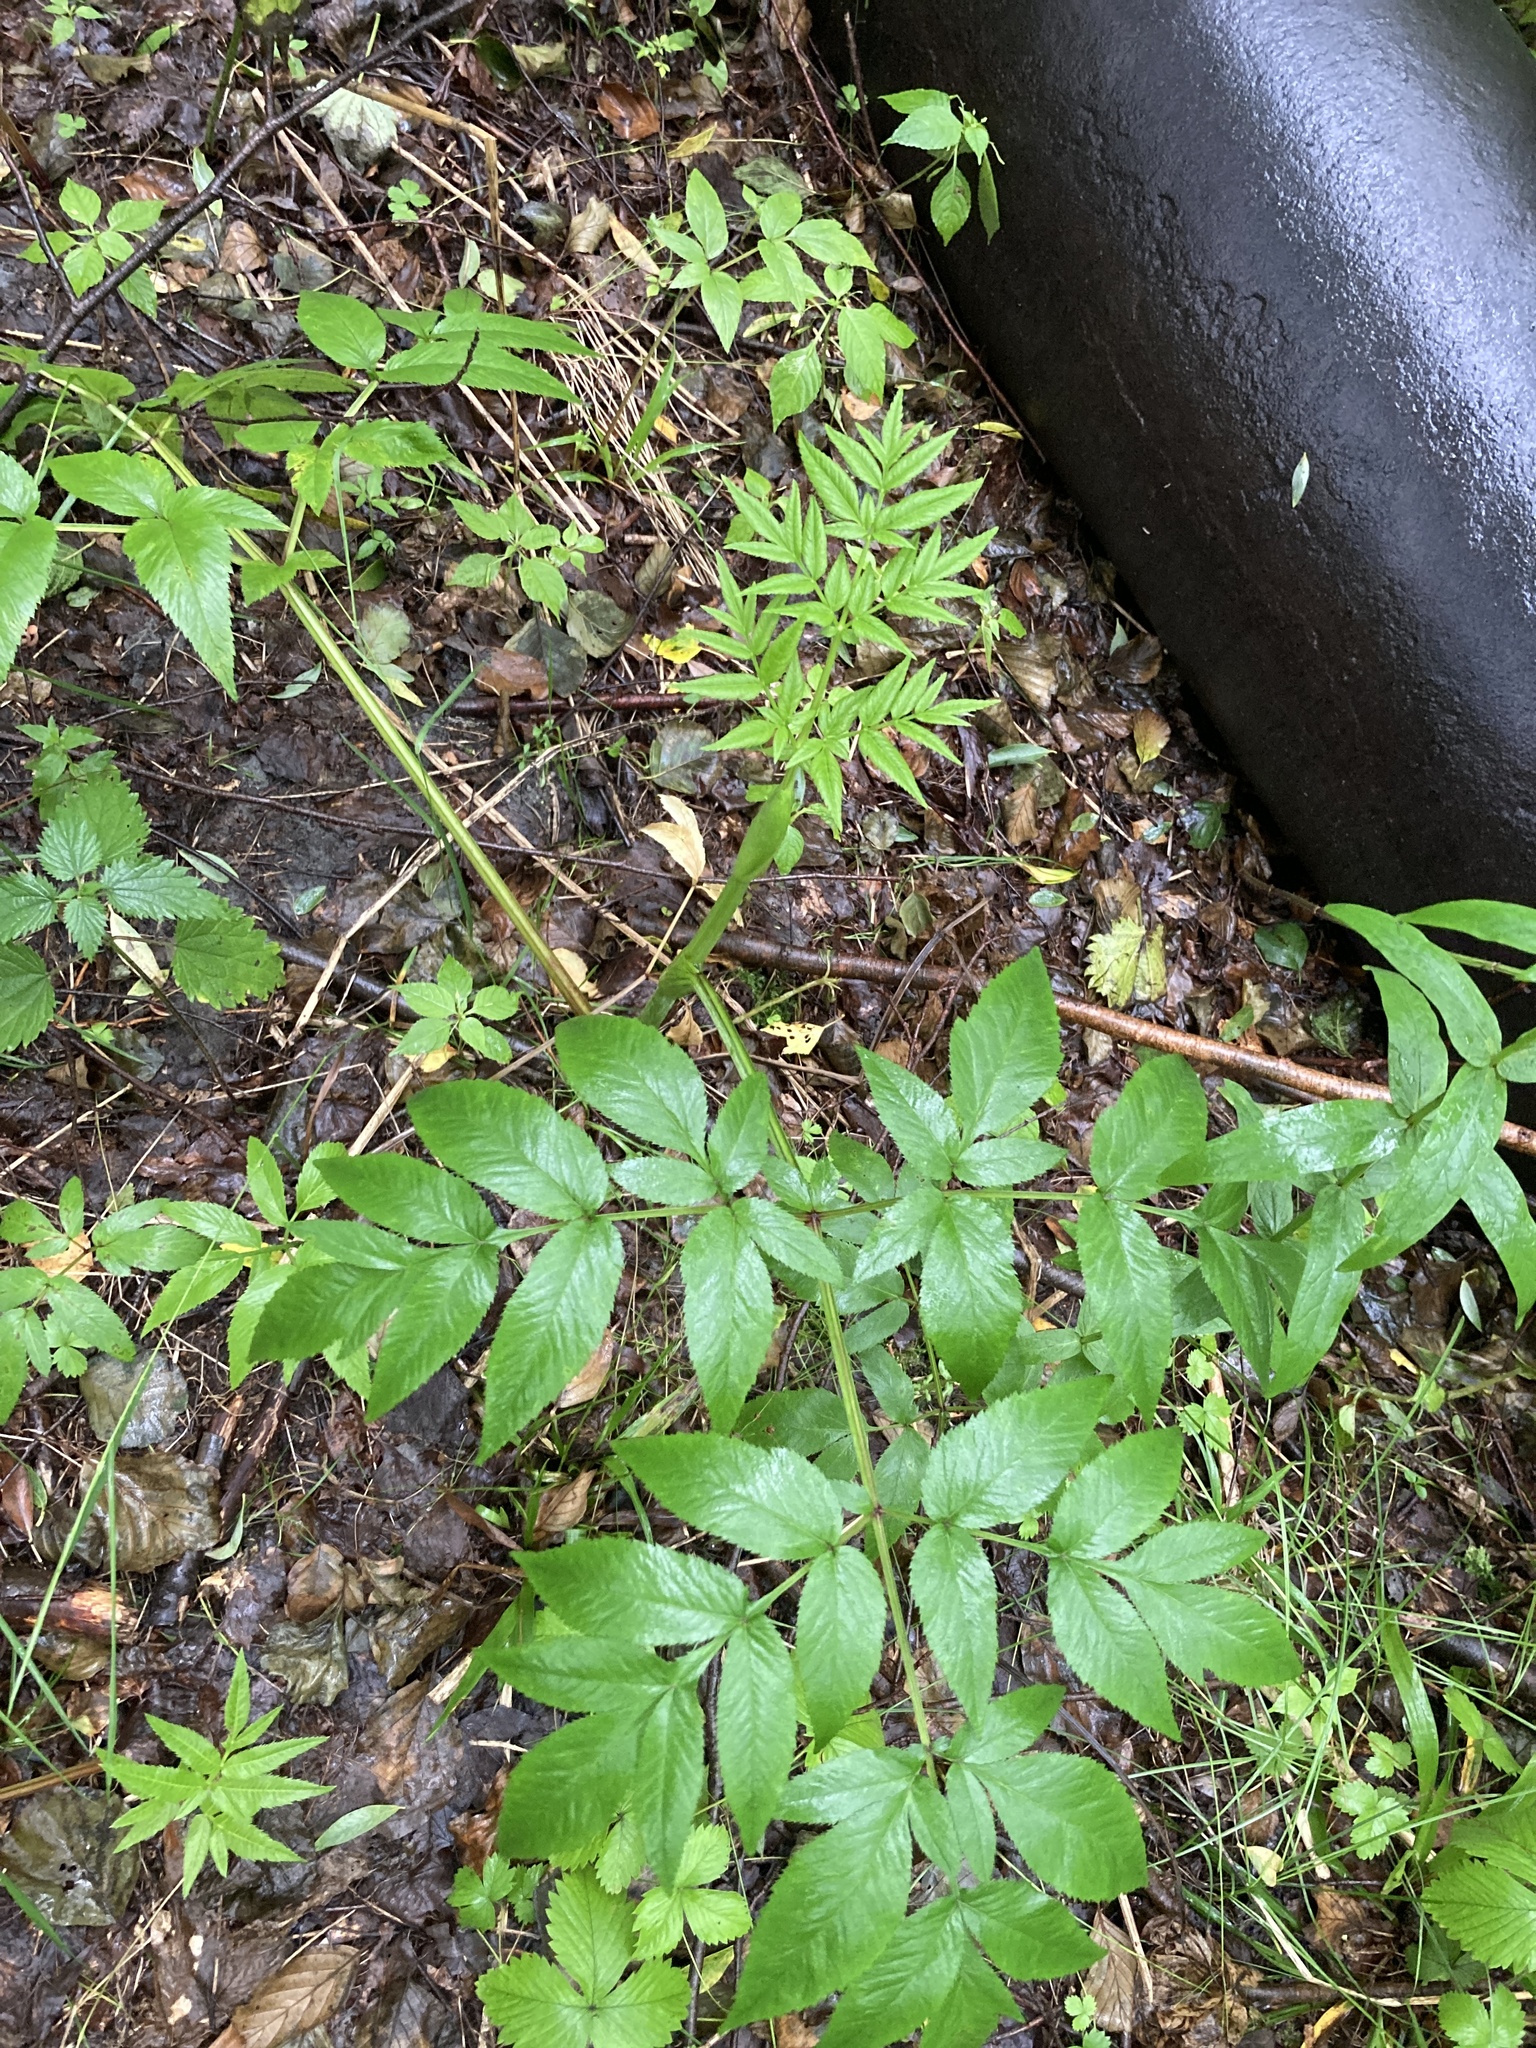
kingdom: Plantae
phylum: Tracheophyta
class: Magnoliopsida
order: Apiales
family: Apiaceae
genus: Angelica
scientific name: Angelica sylvestris
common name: Wild angelica
